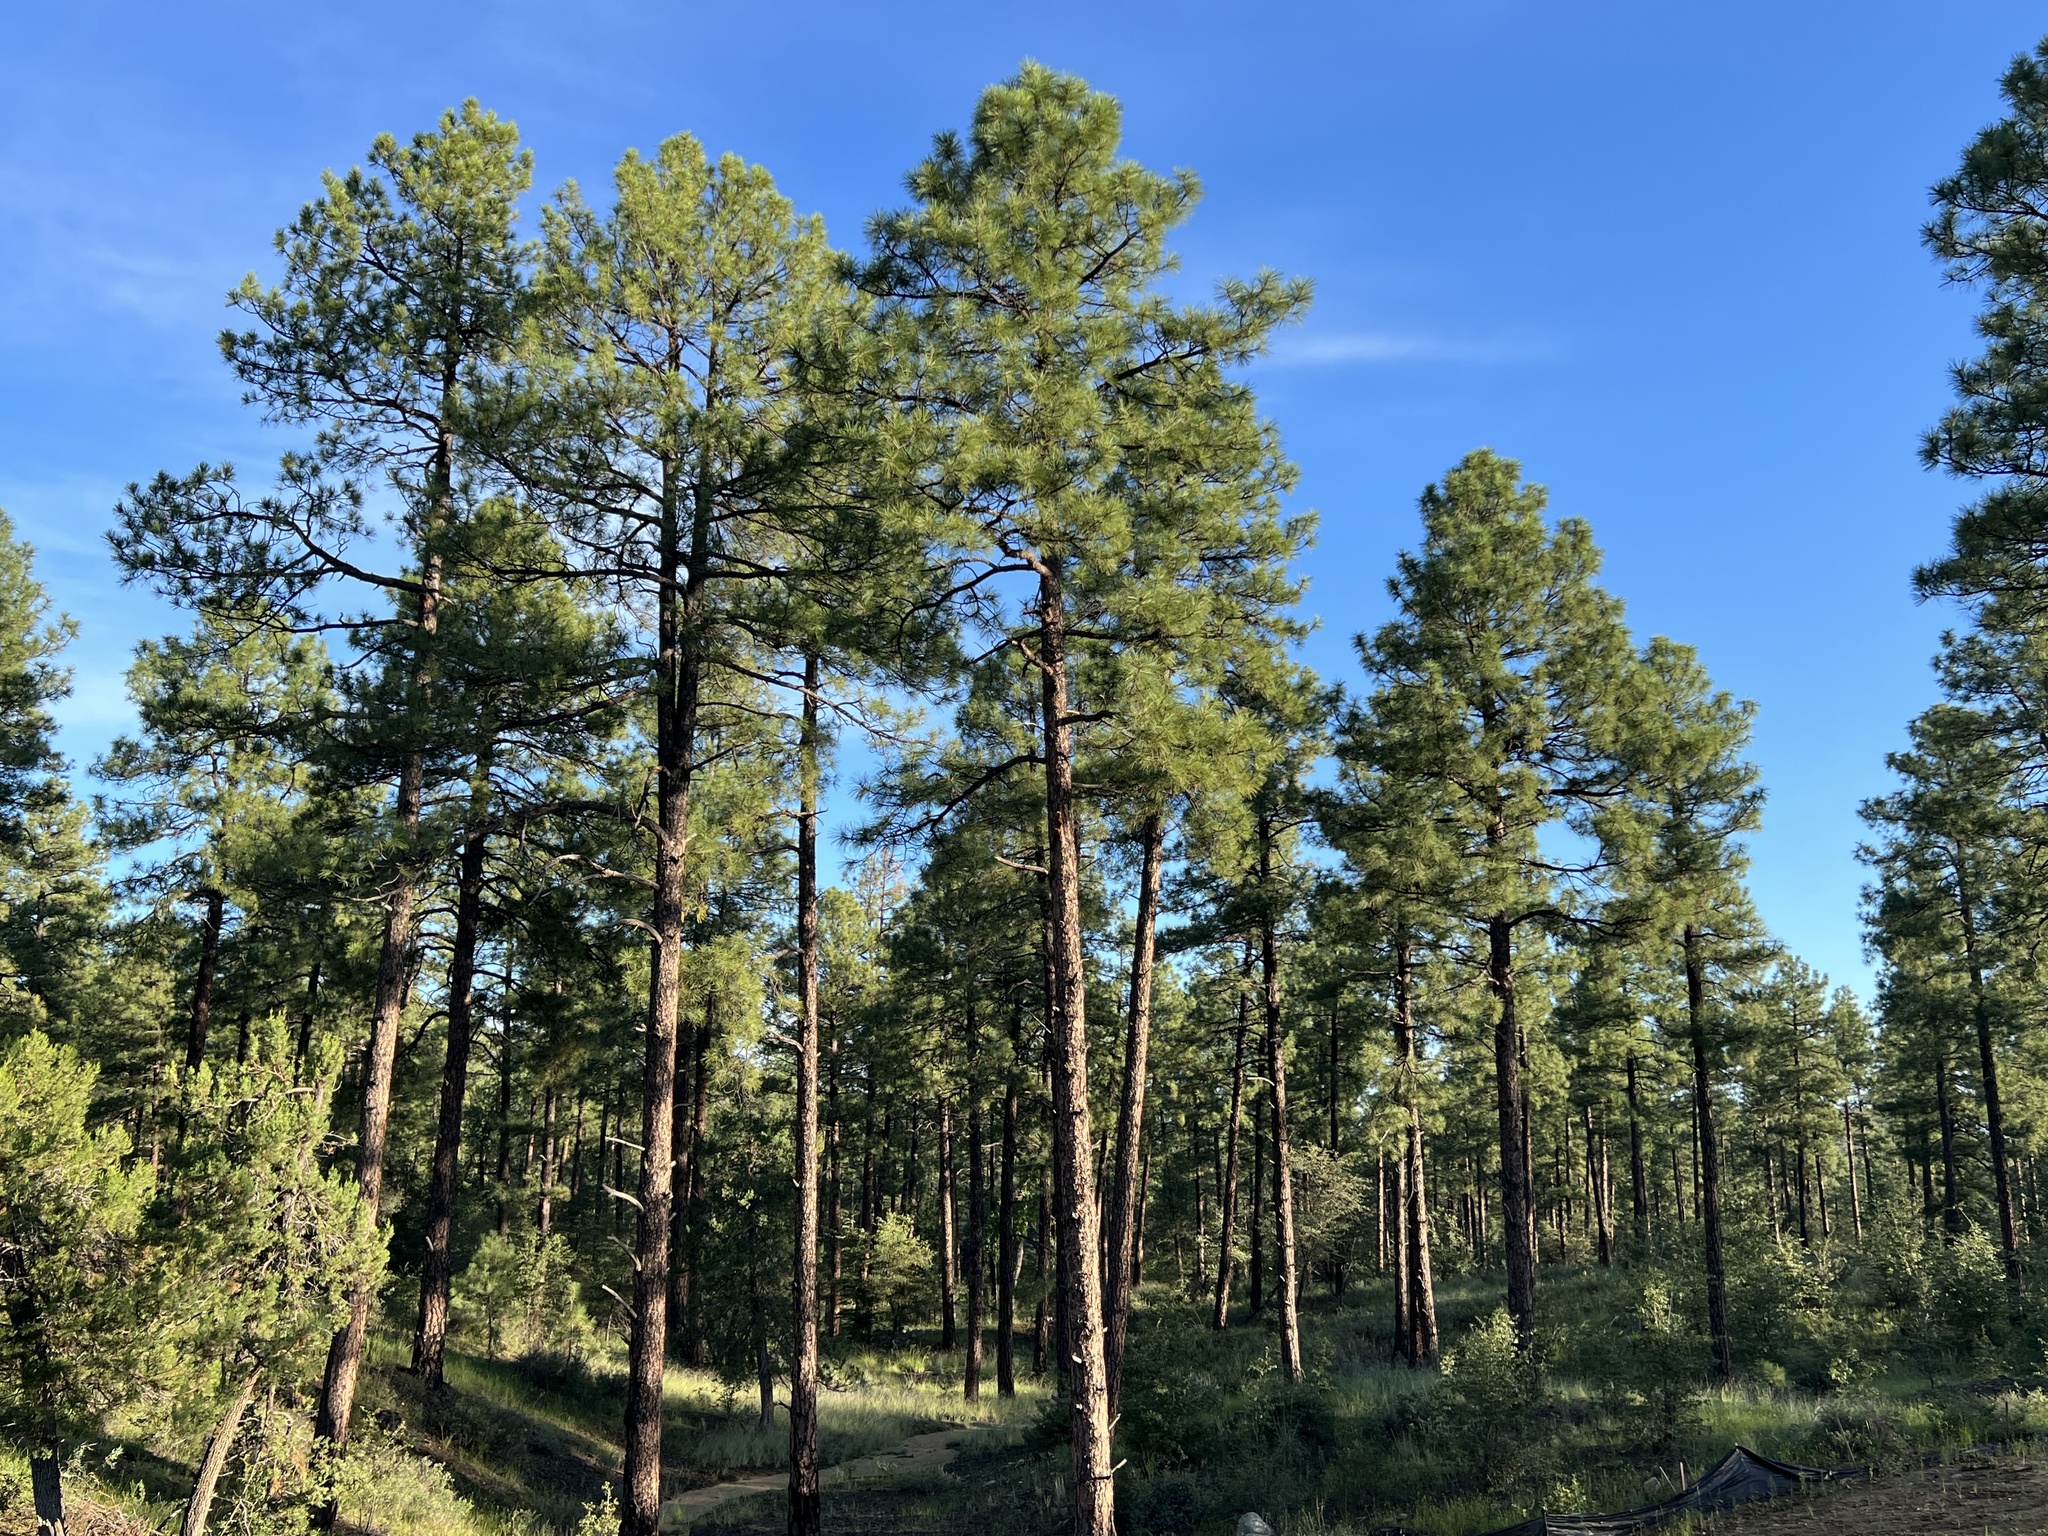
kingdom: Plantae
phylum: Tracheophyta
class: Pinopsida
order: Pinales
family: Pinaceae
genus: Pinus
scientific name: Pinus ponderosa
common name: Western yellow-pine
